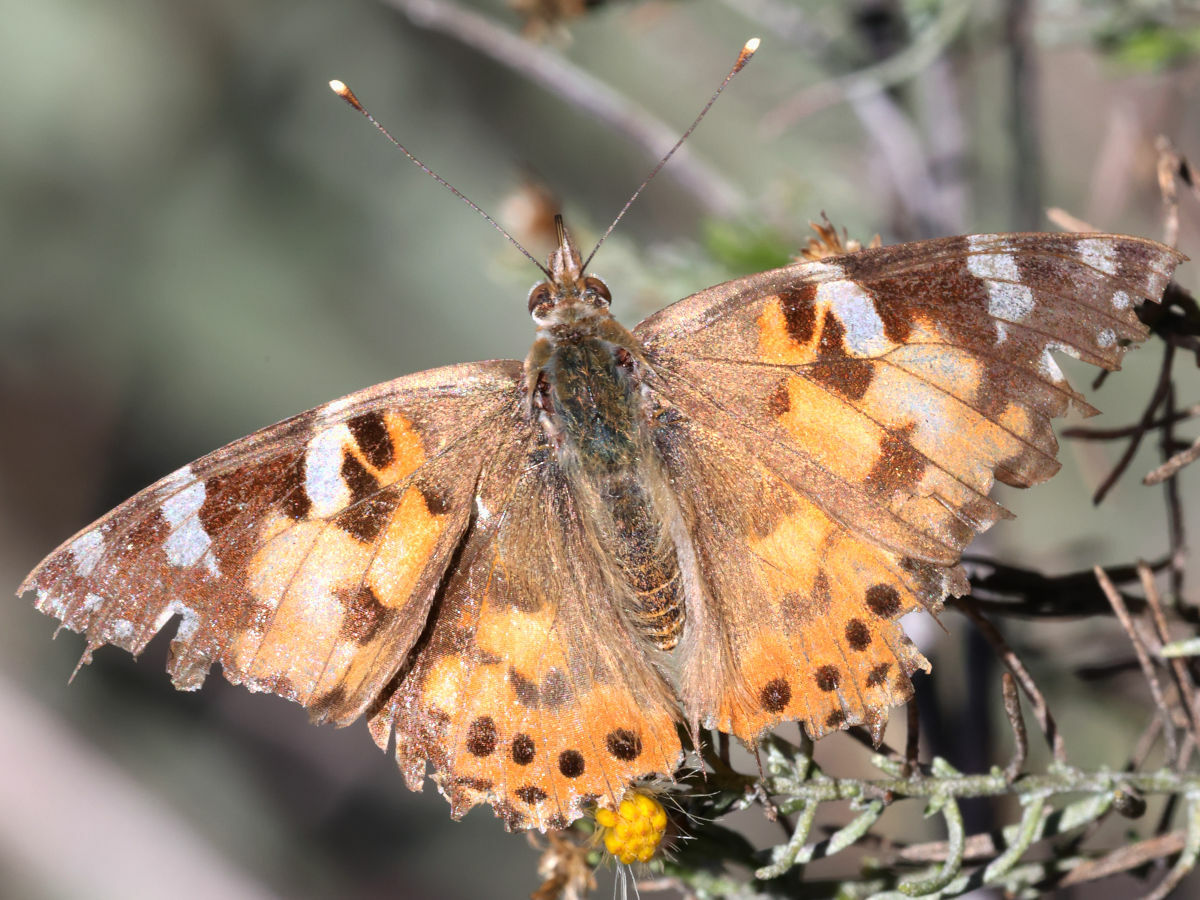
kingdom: Animalia
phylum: Arthropoda
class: Insecta
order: Lepidoptera
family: Nymphalidae
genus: Vanessa
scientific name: Vanessa cardui
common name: Painted lady
